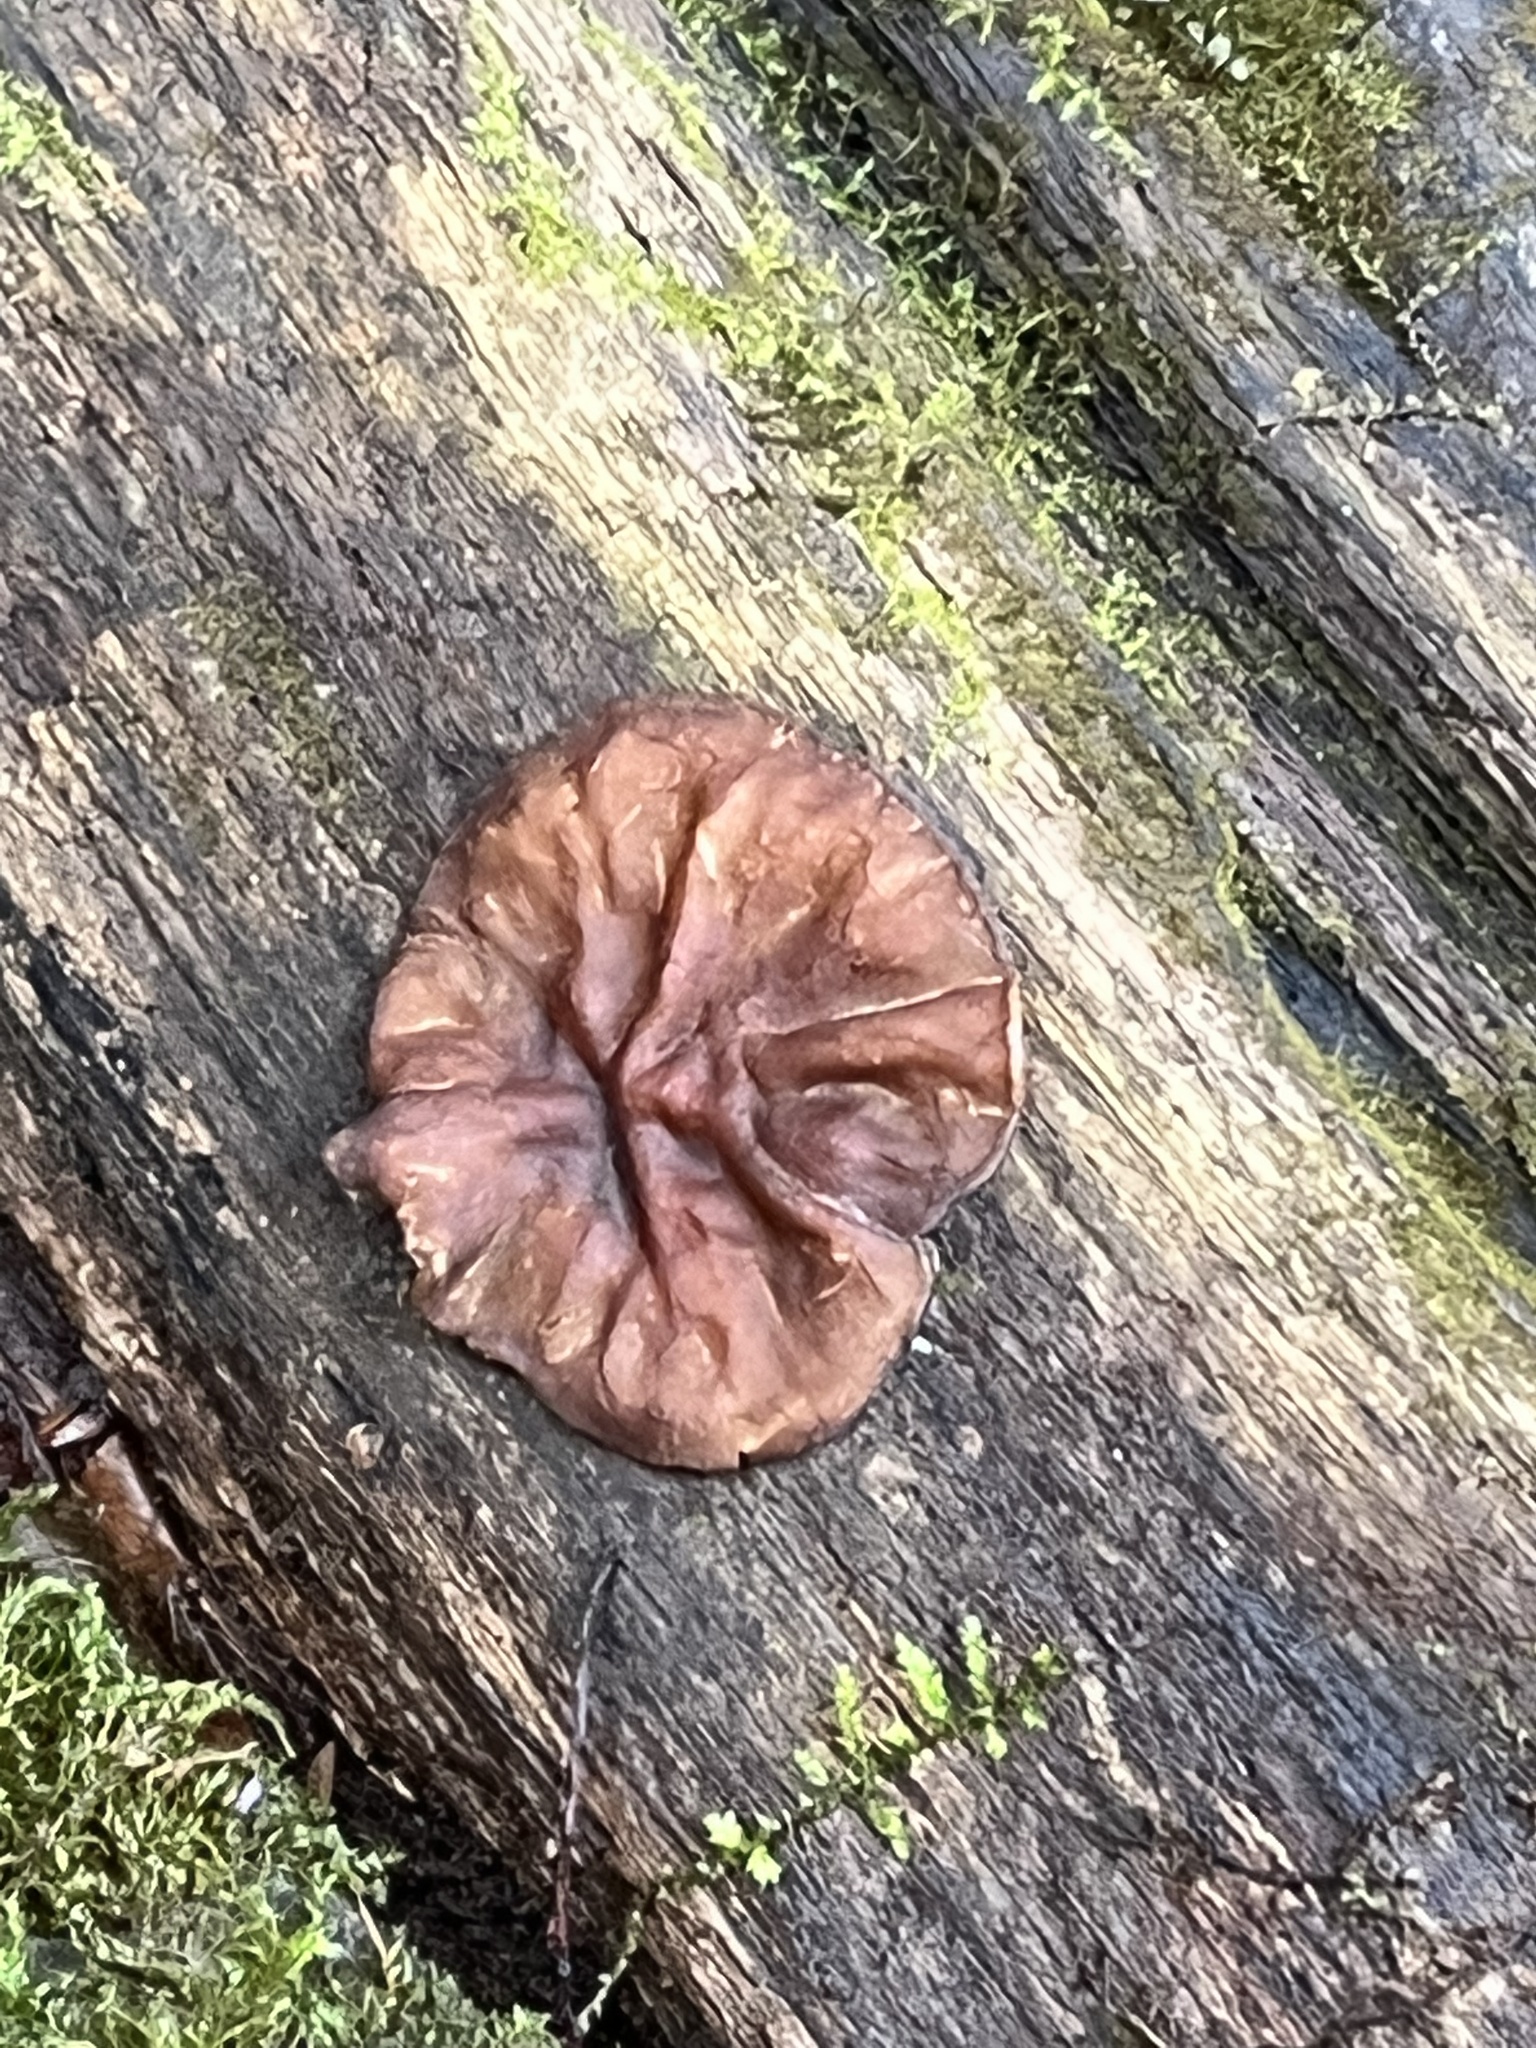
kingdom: Fungi
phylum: Ascomycota
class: Pezizomycetes
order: Pezizales
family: Pezizaceae
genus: Pachyella
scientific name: Pachyella clypeata
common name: Copper penny fungus
